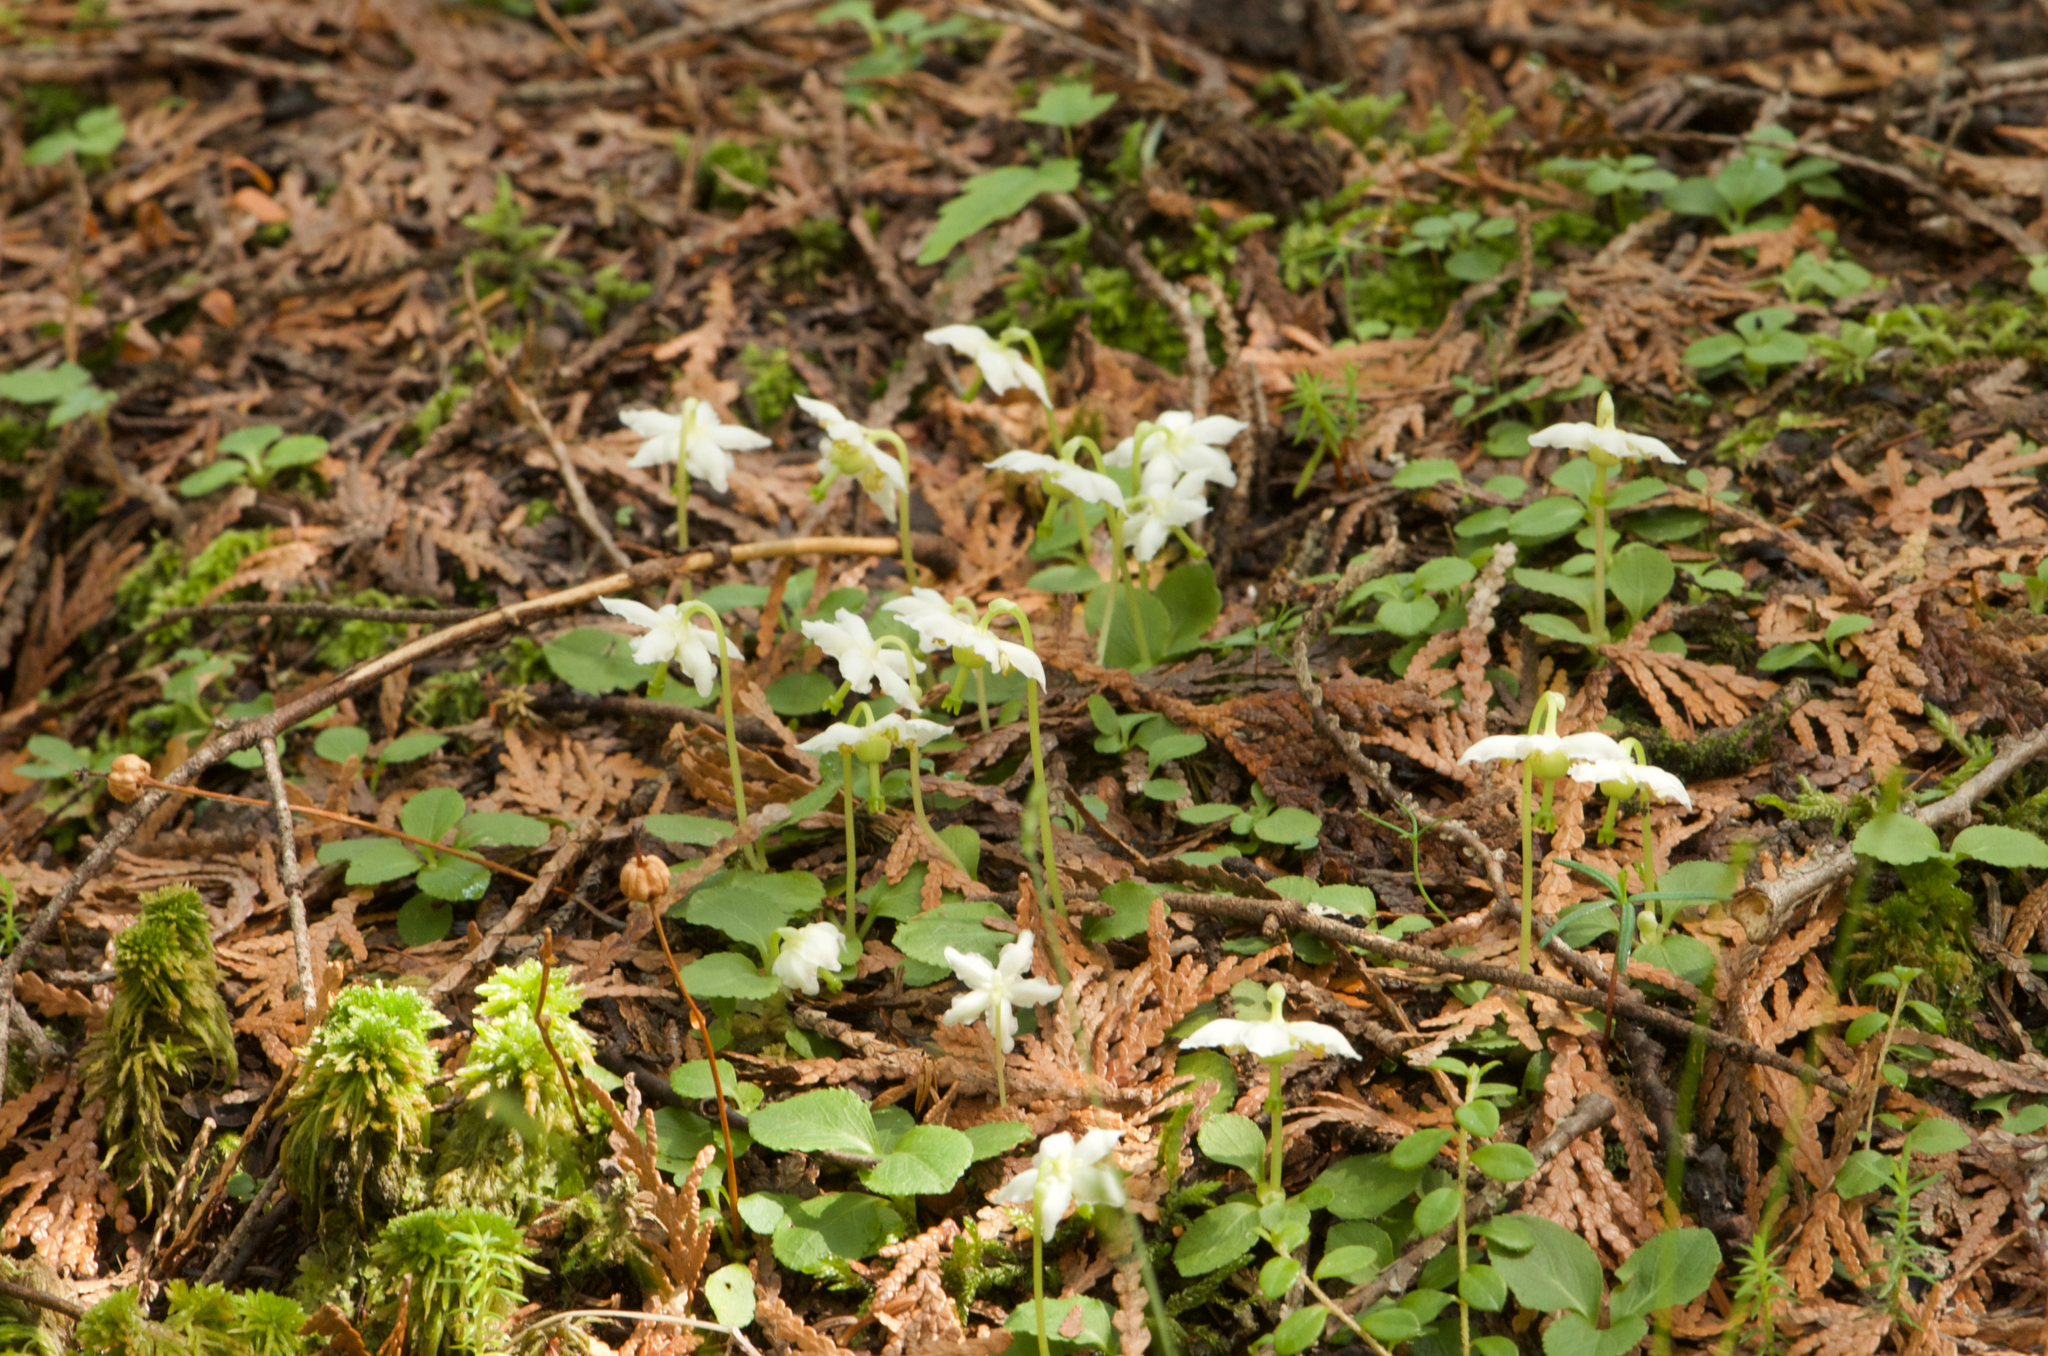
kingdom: Plantae
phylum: Tracheophyta
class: Magnoliopsida
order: Ericales
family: Ericaceae
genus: Moneses
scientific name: Moneses uniflora
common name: One-flowered wintergreen
